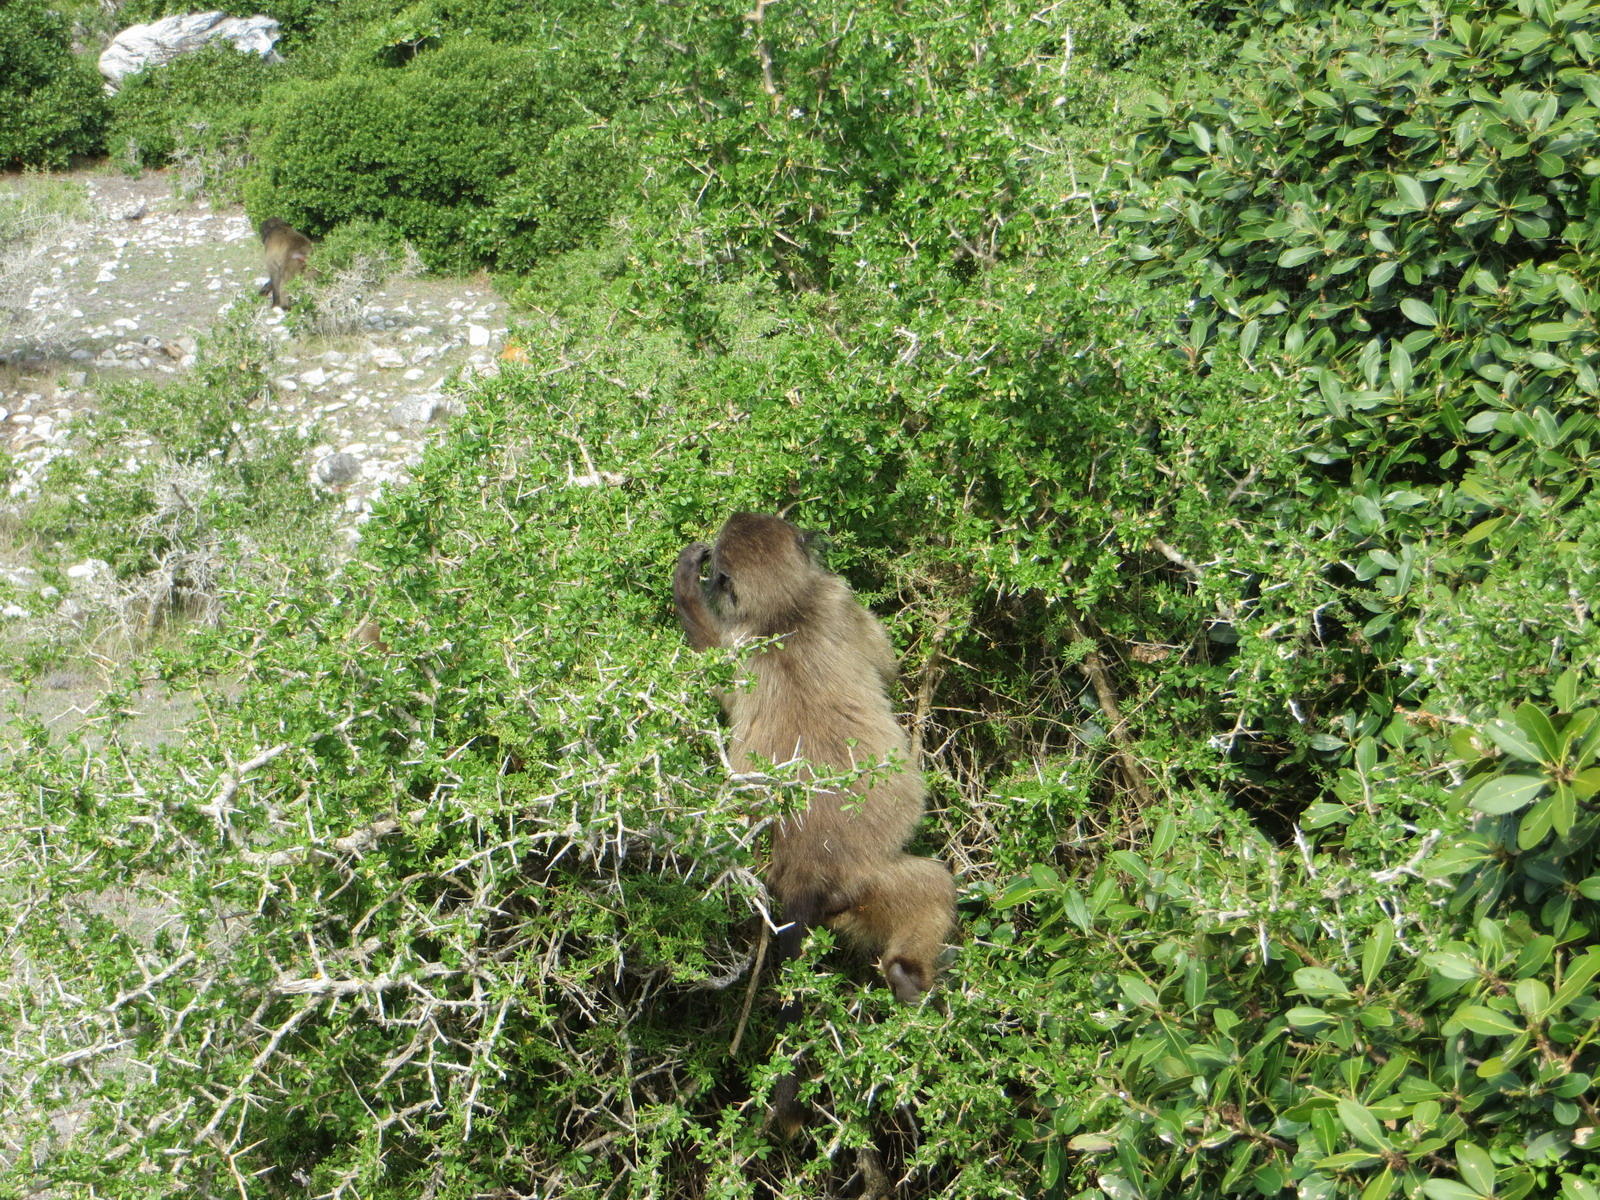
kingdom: Plantae
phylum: Tracheophyta
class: Magnoliopsida
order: Solanales
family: Solanaceae
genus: Lycium
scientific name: Lycium ferocissimum
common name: African boxthorn
